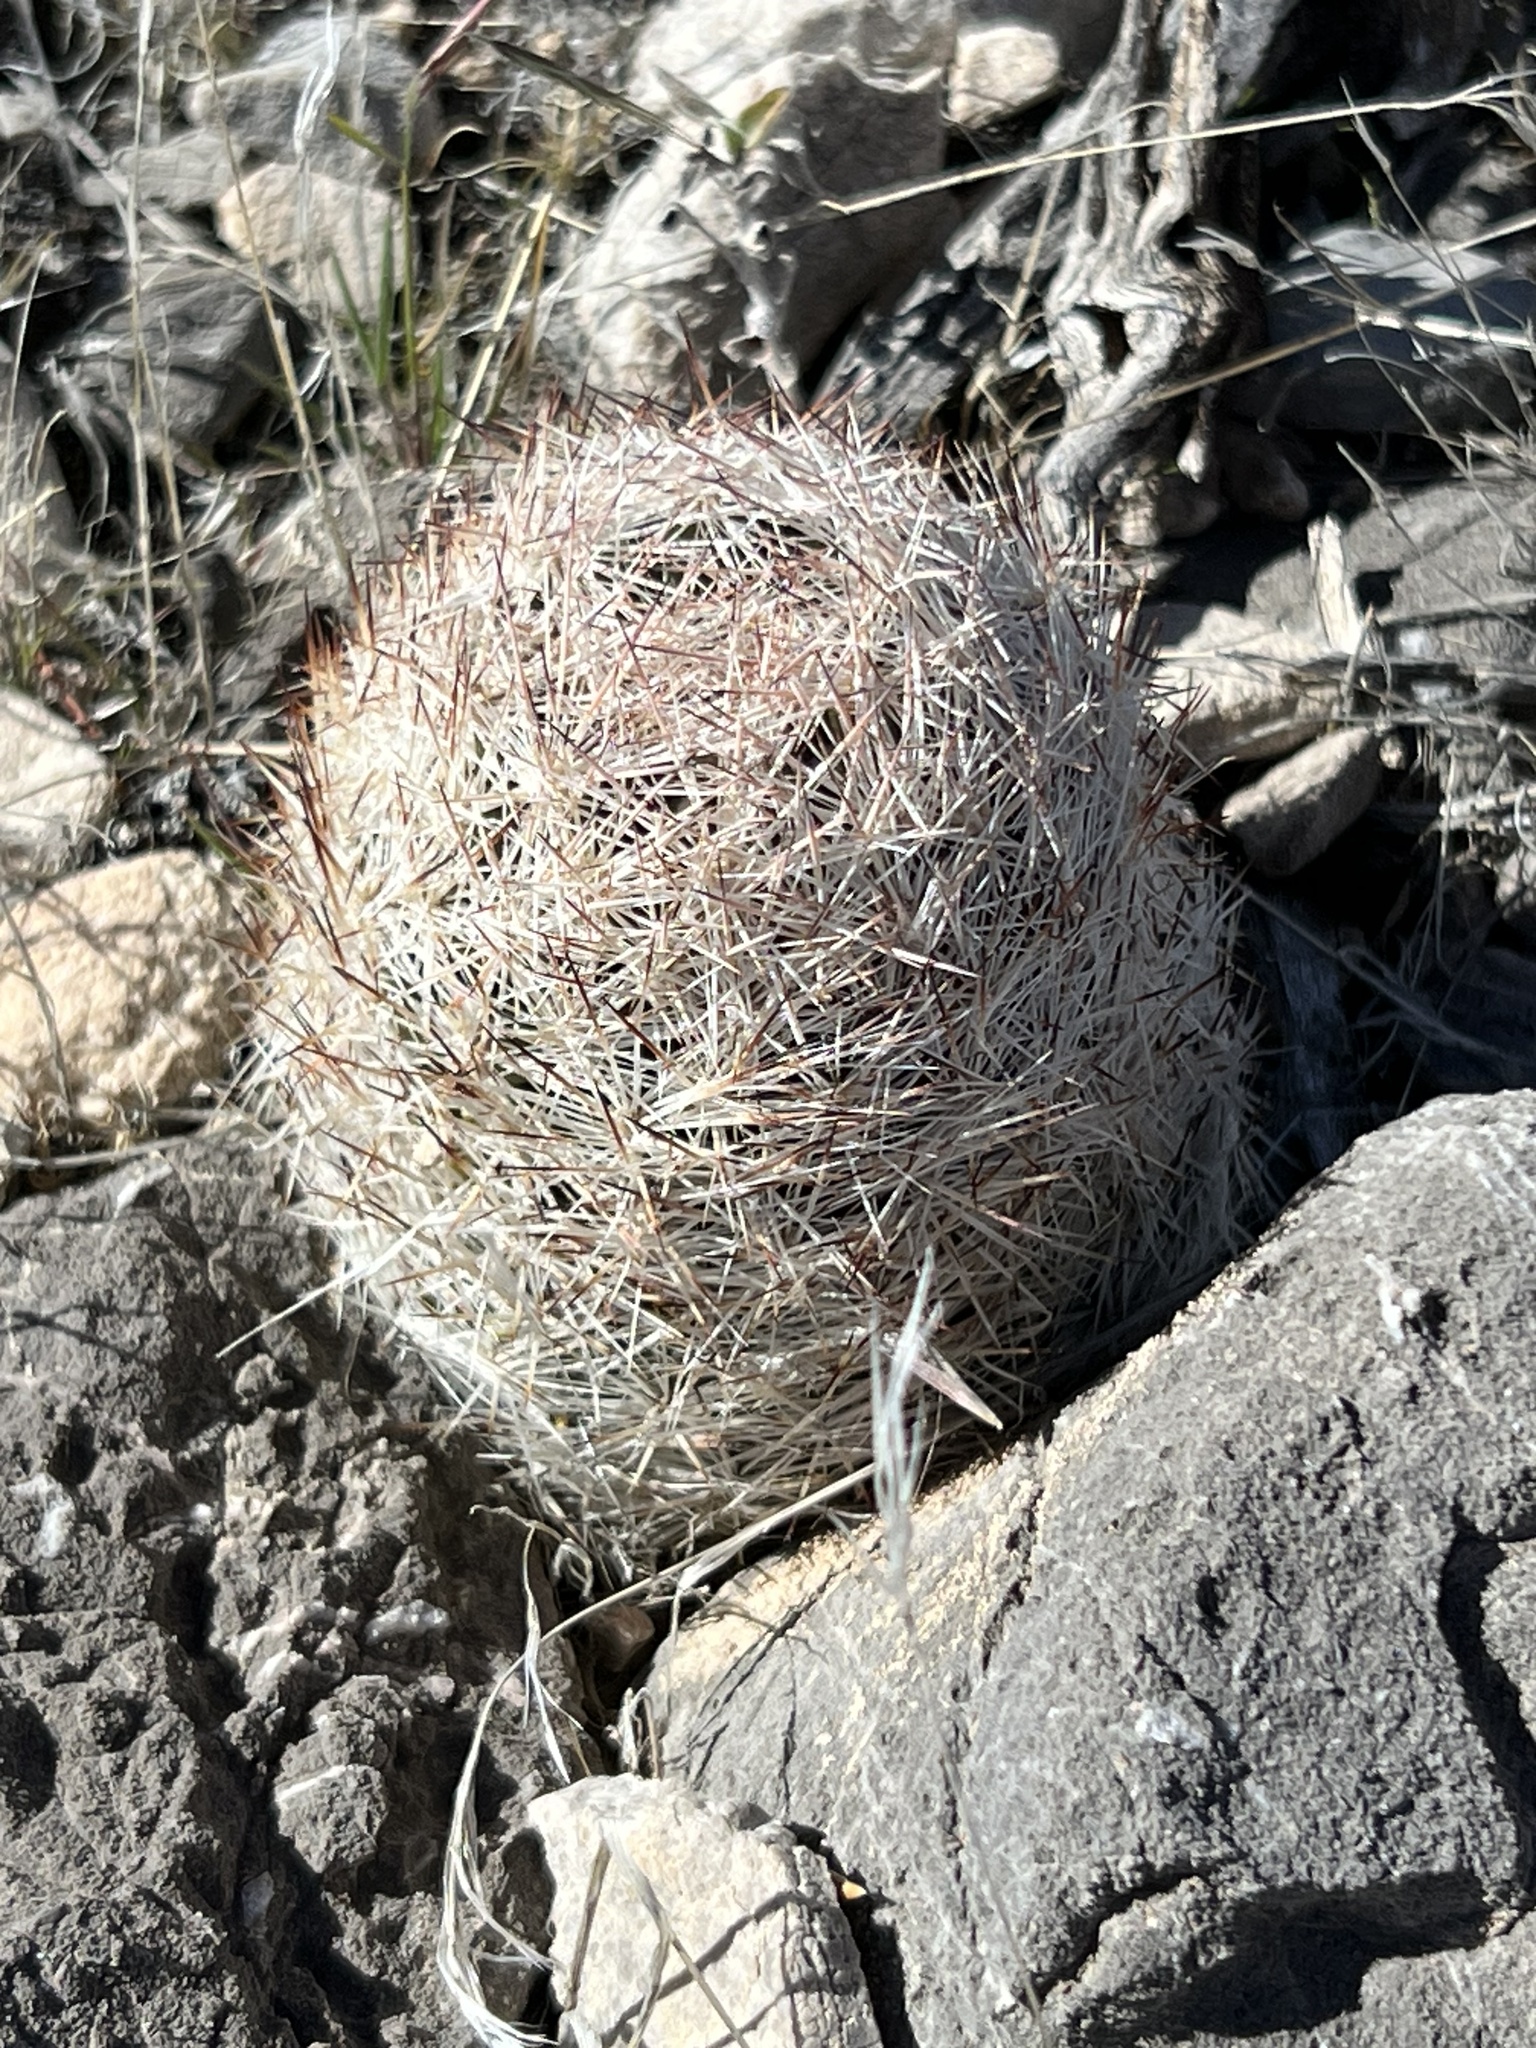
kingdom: Plantae
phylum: Tracheophyta
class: Magnoliopsida
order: Caryophyllales
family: Cactaceae
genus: Pelecyphora
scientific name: Pelecyphora dasyacantha
